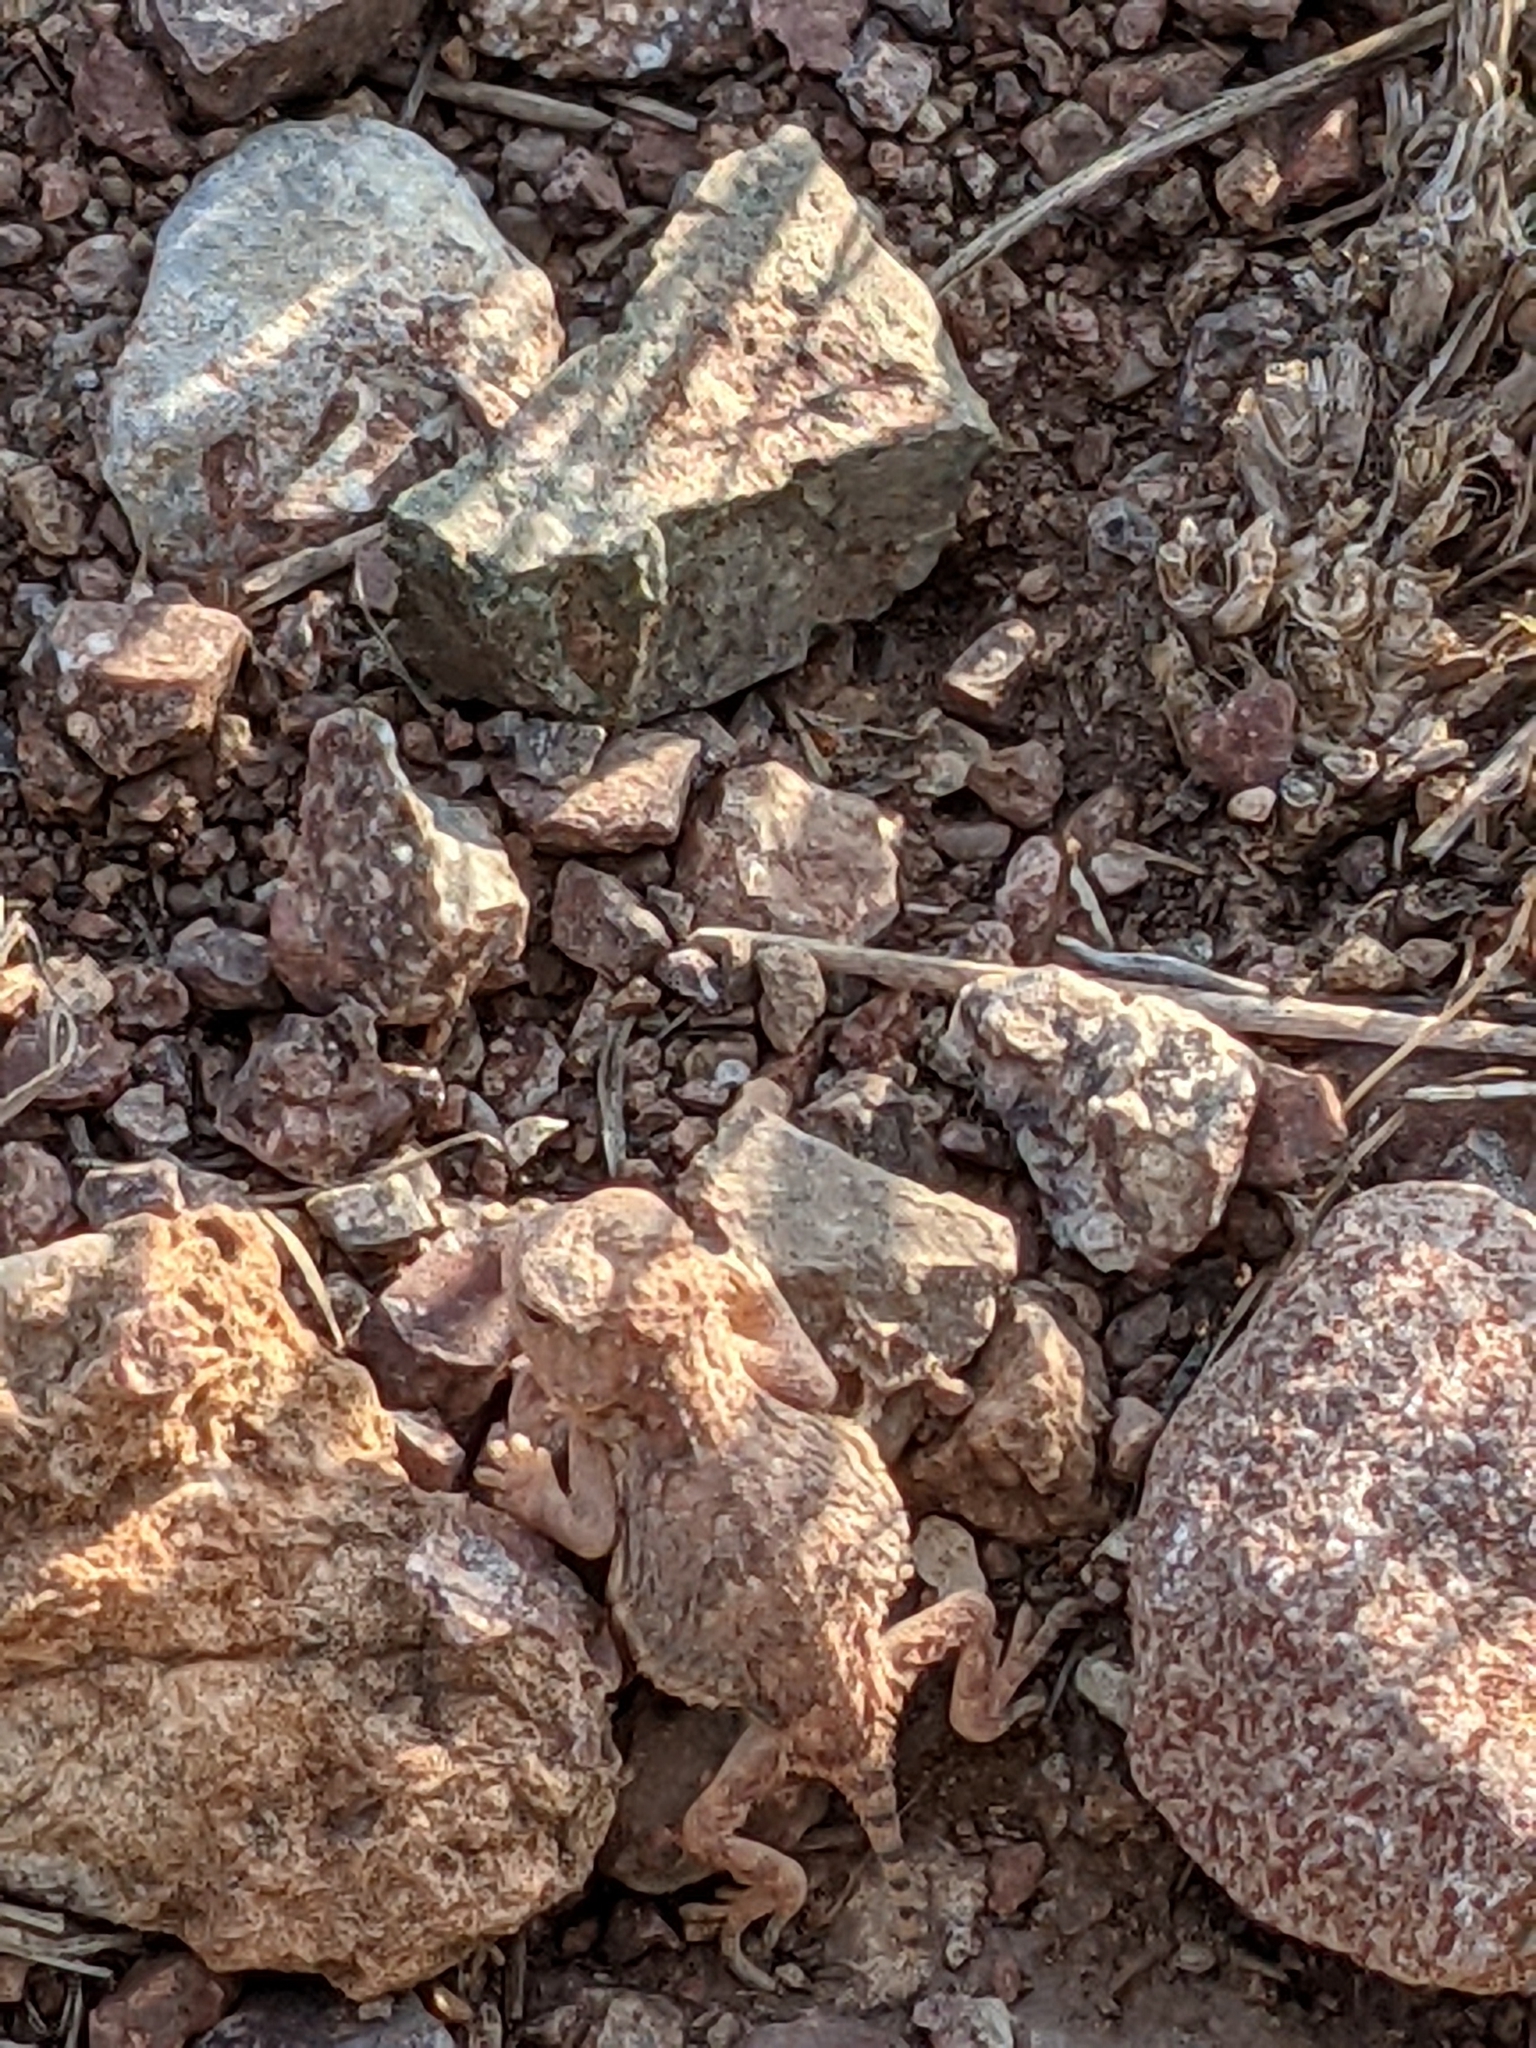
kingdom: Animalia
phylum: Chordata
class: Squamata
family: Phrynosomatidae
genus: Phrynosoma
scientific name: Phrynosoma hernandesi
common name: Greater short-horned lizard
